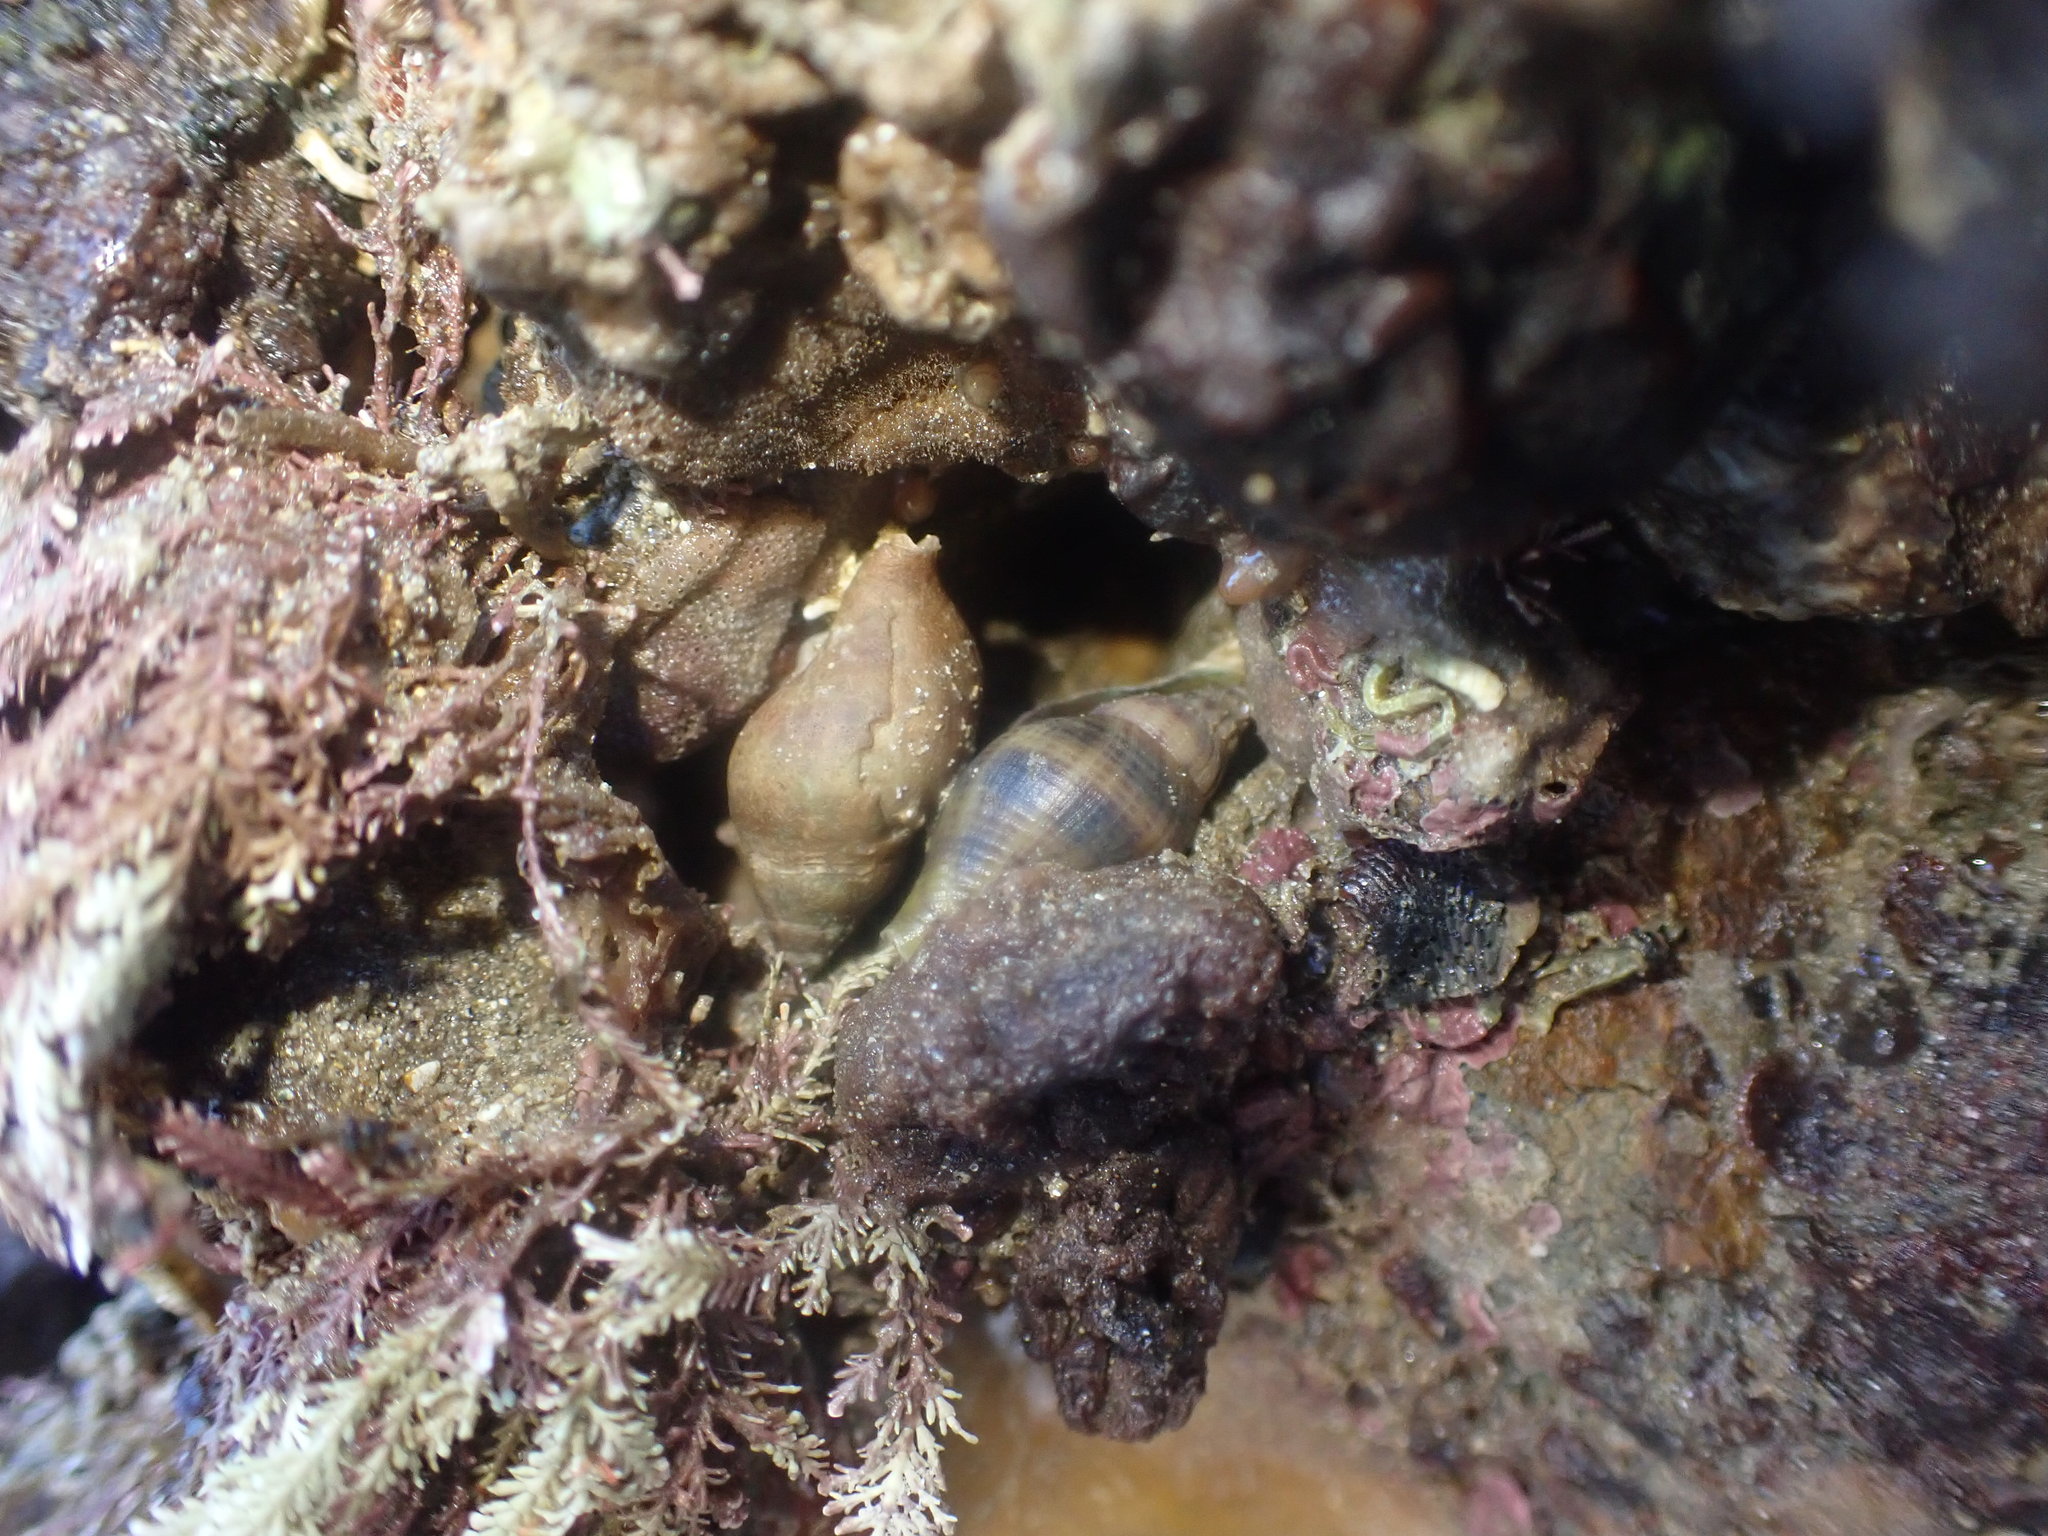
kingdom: Animalia
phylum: Mollusca
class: Gastropoda
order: Neogastropoda
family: Tudiclidae
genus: Buccinulum
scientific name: Buccinulum vittatum
